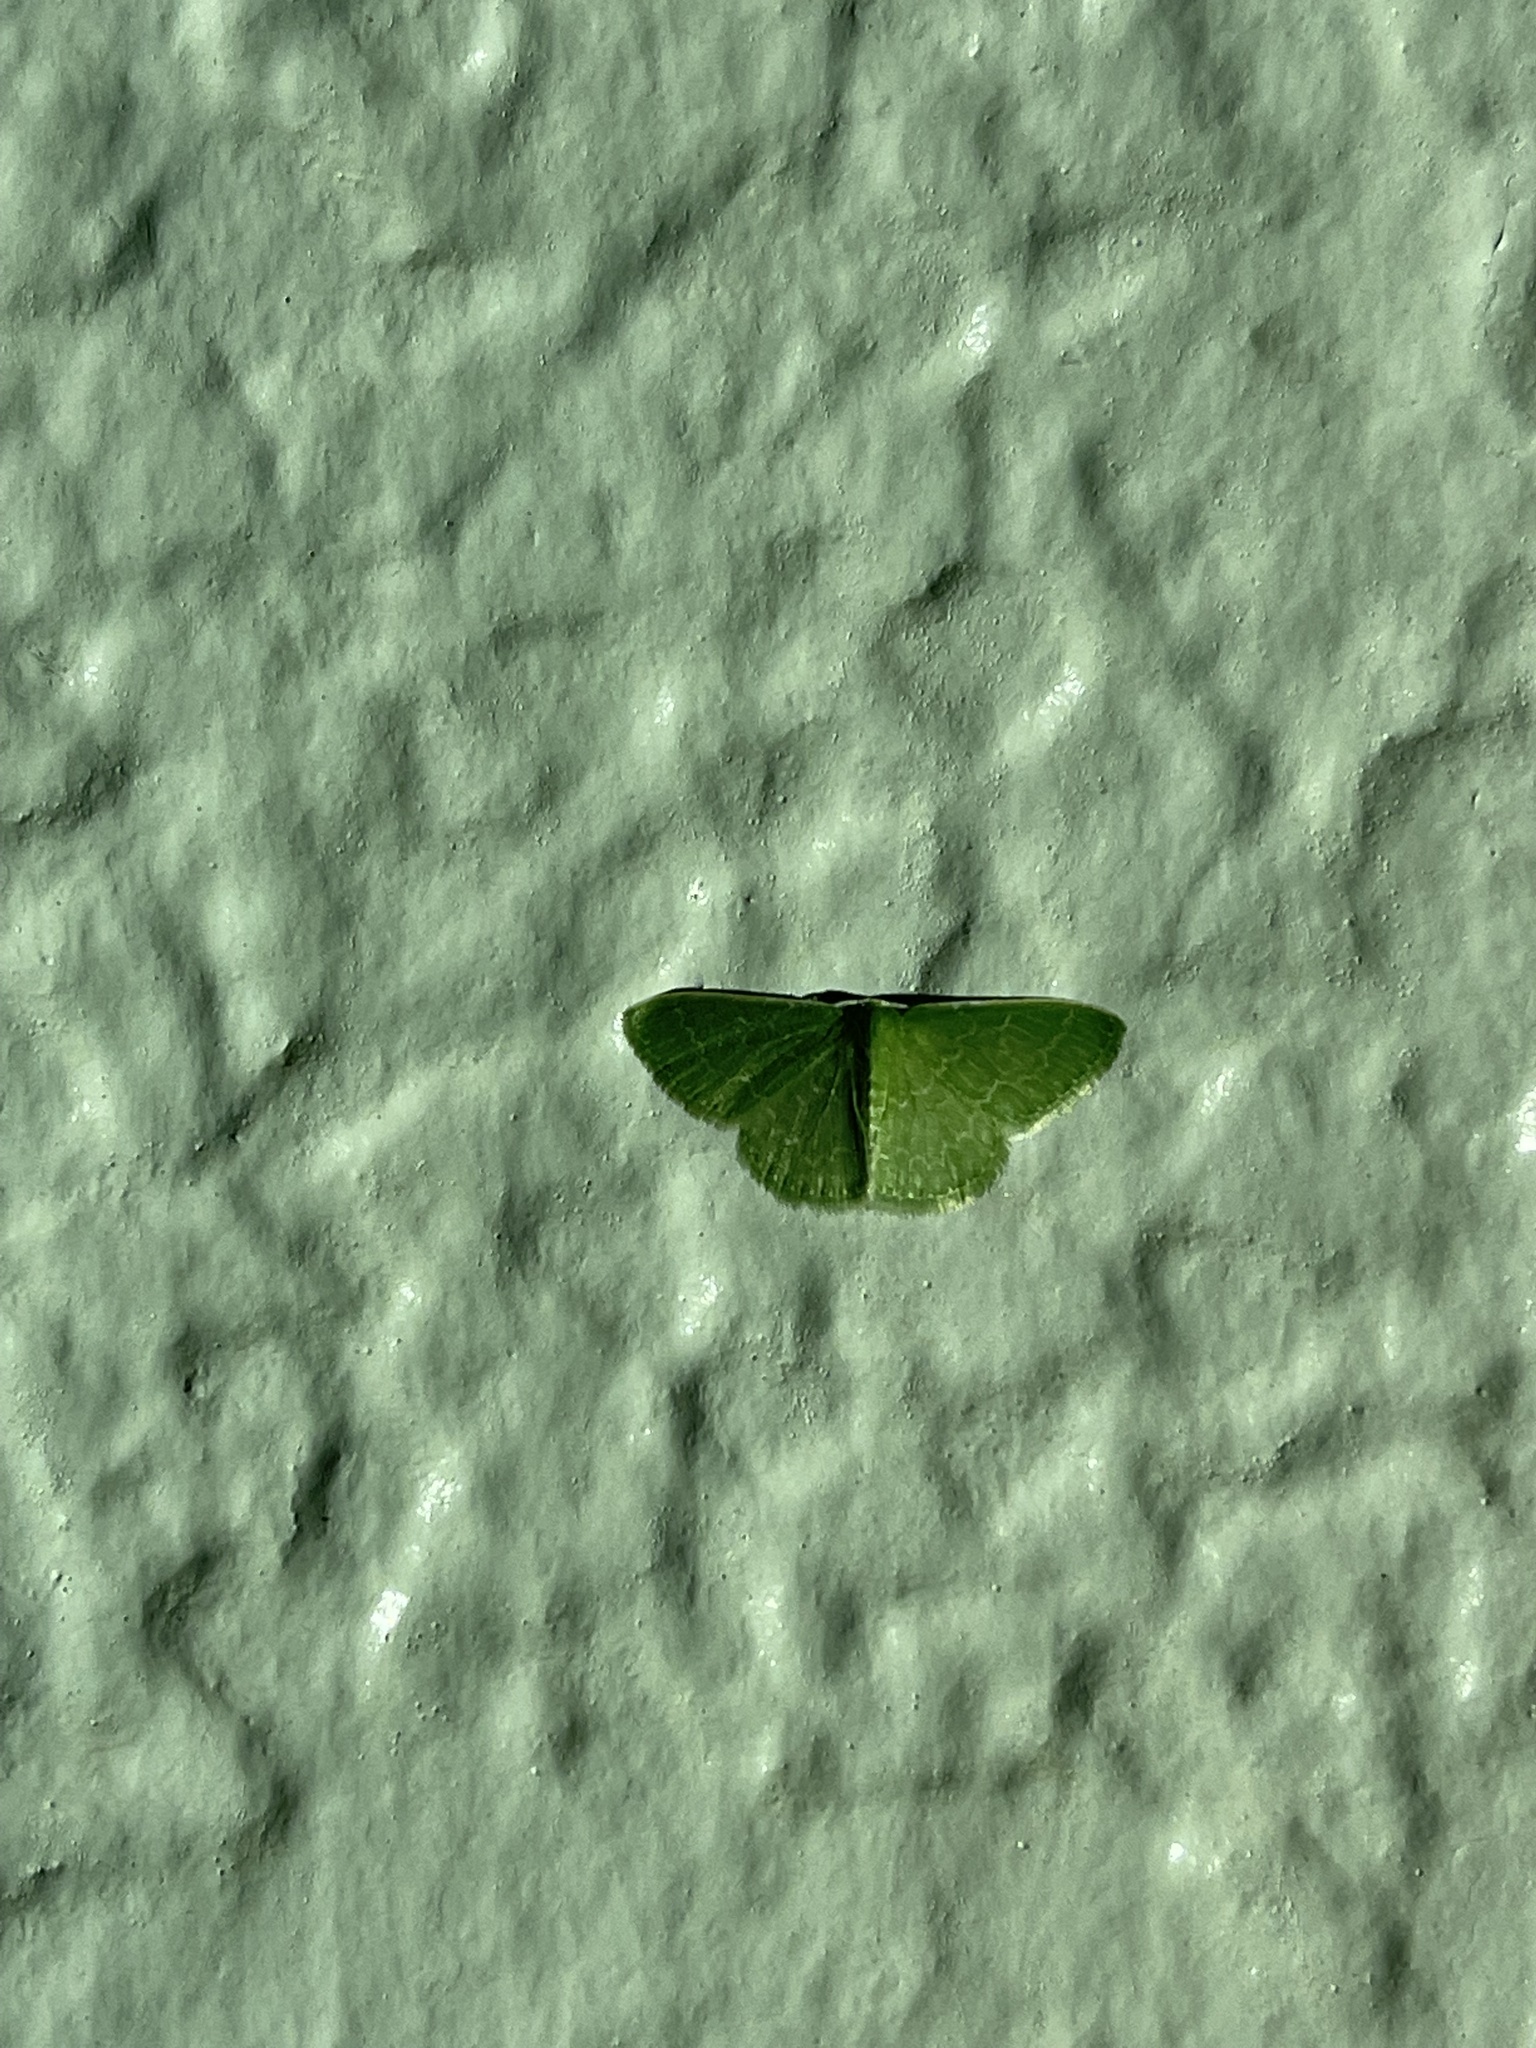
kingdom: Animalia
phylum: Arthropoda
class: Insecta
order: Lepidoptera
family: Geometridae
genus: Synchlora
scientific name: Synchlora frondaria
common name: Southern emerald
